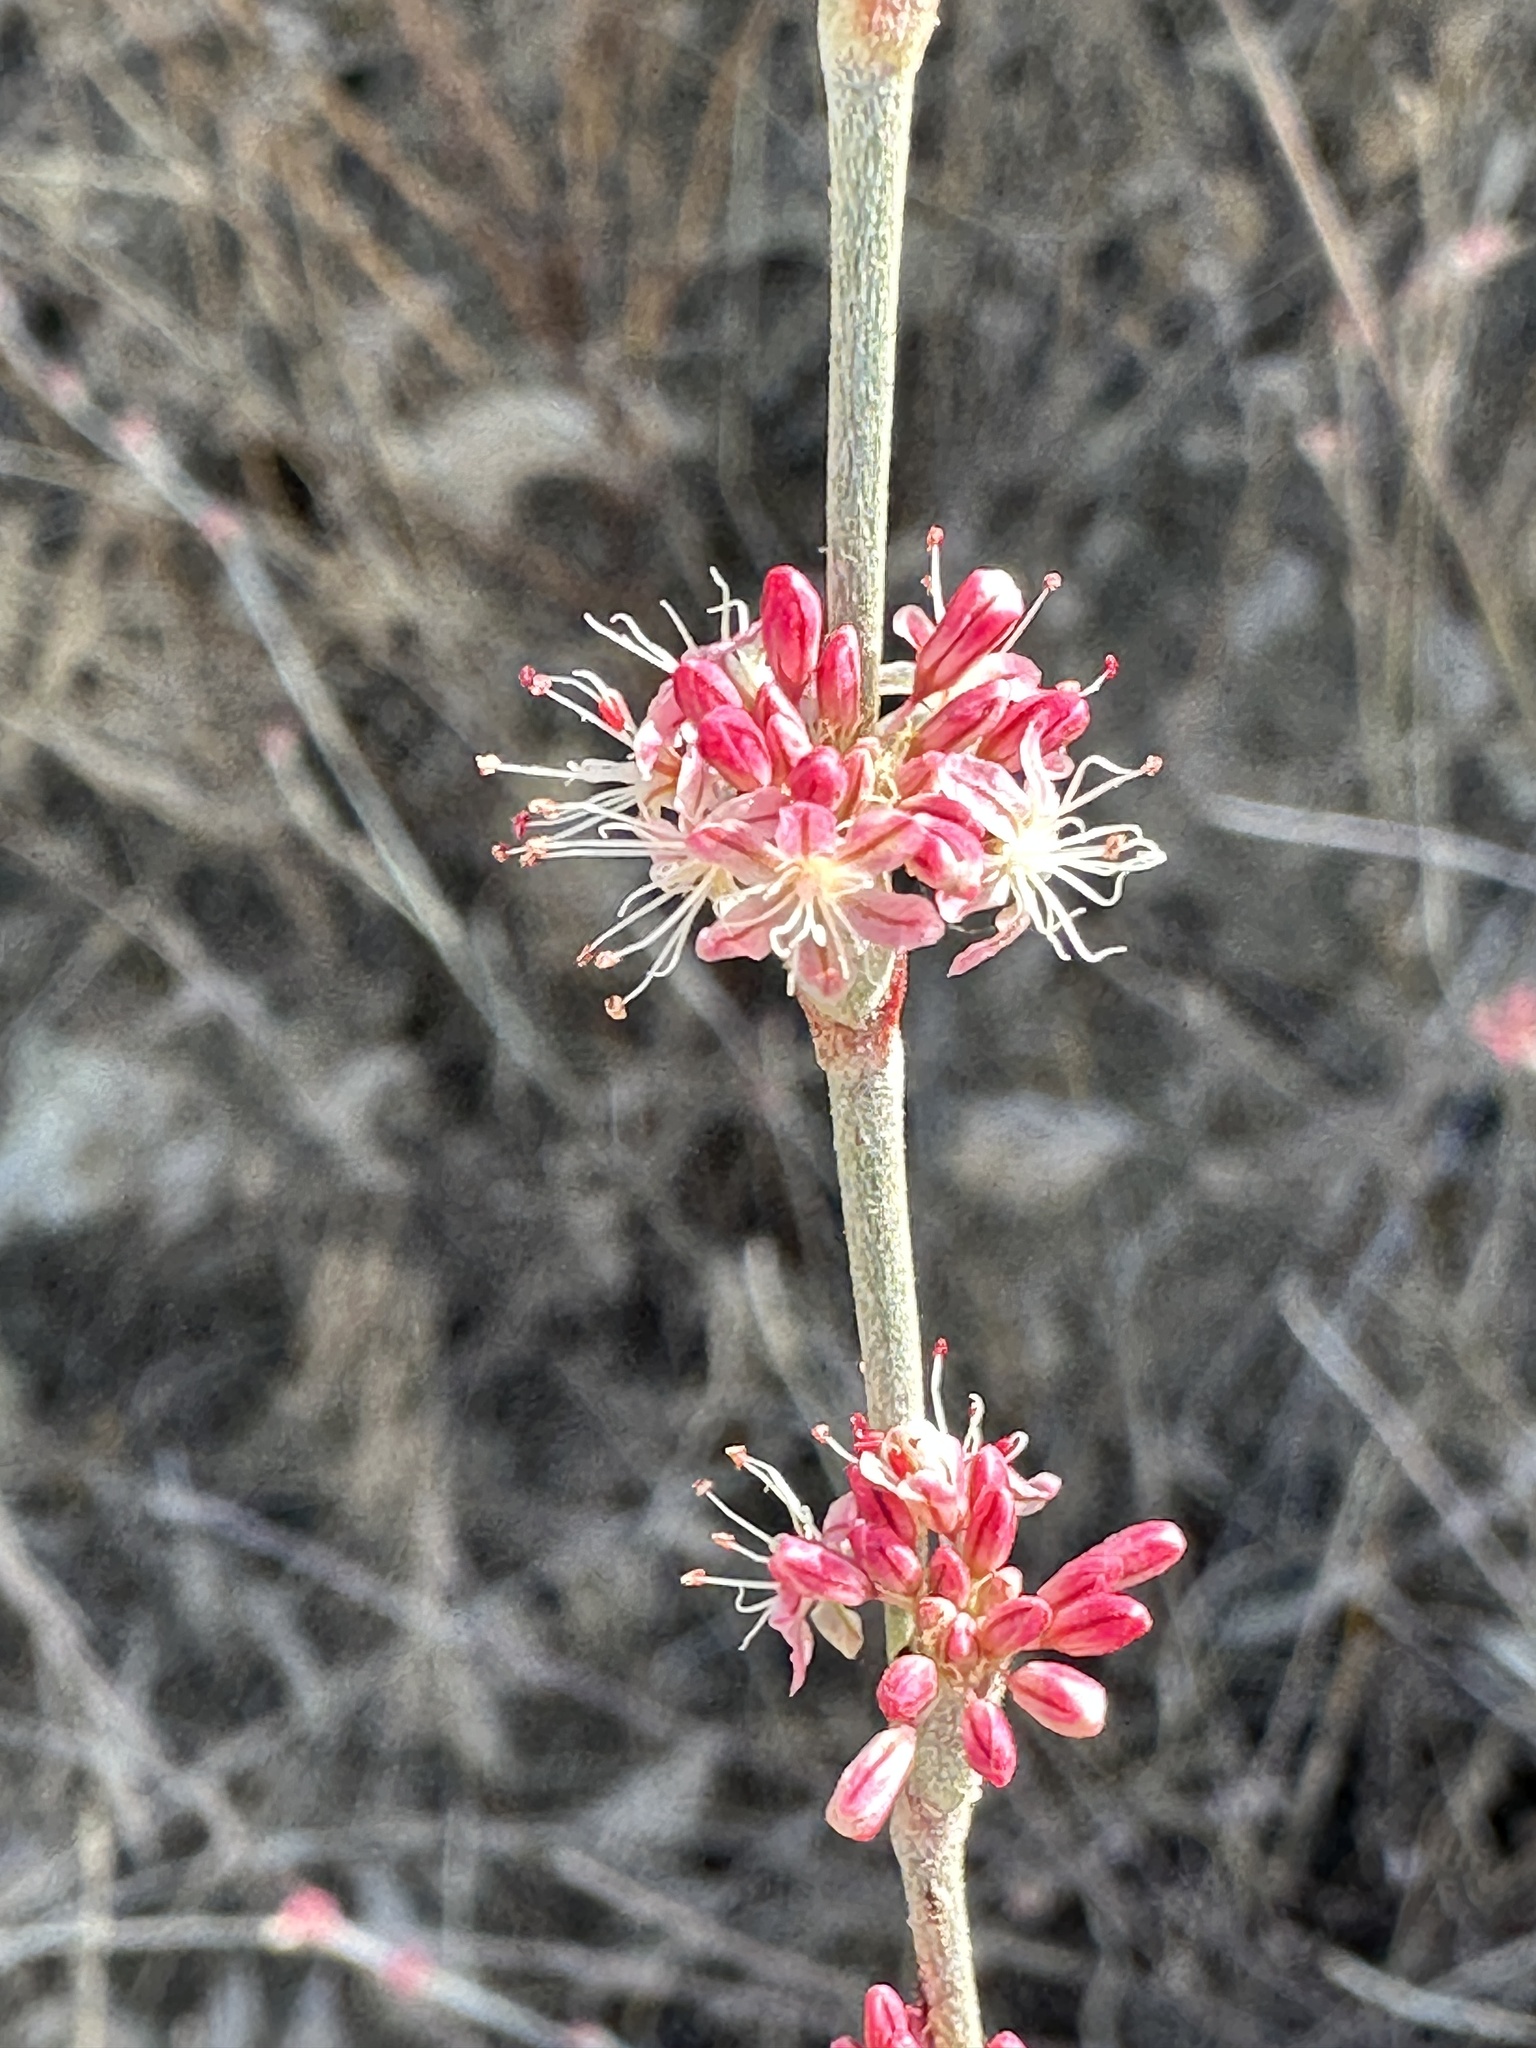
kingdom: Plantae
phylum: Tracheophyta
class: Magnoliopsida
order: Caryophyllales
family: Polygonaceae
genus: Eriogonum
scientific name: Eriogonum elongatum
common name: Long-stem wild buckwheat
